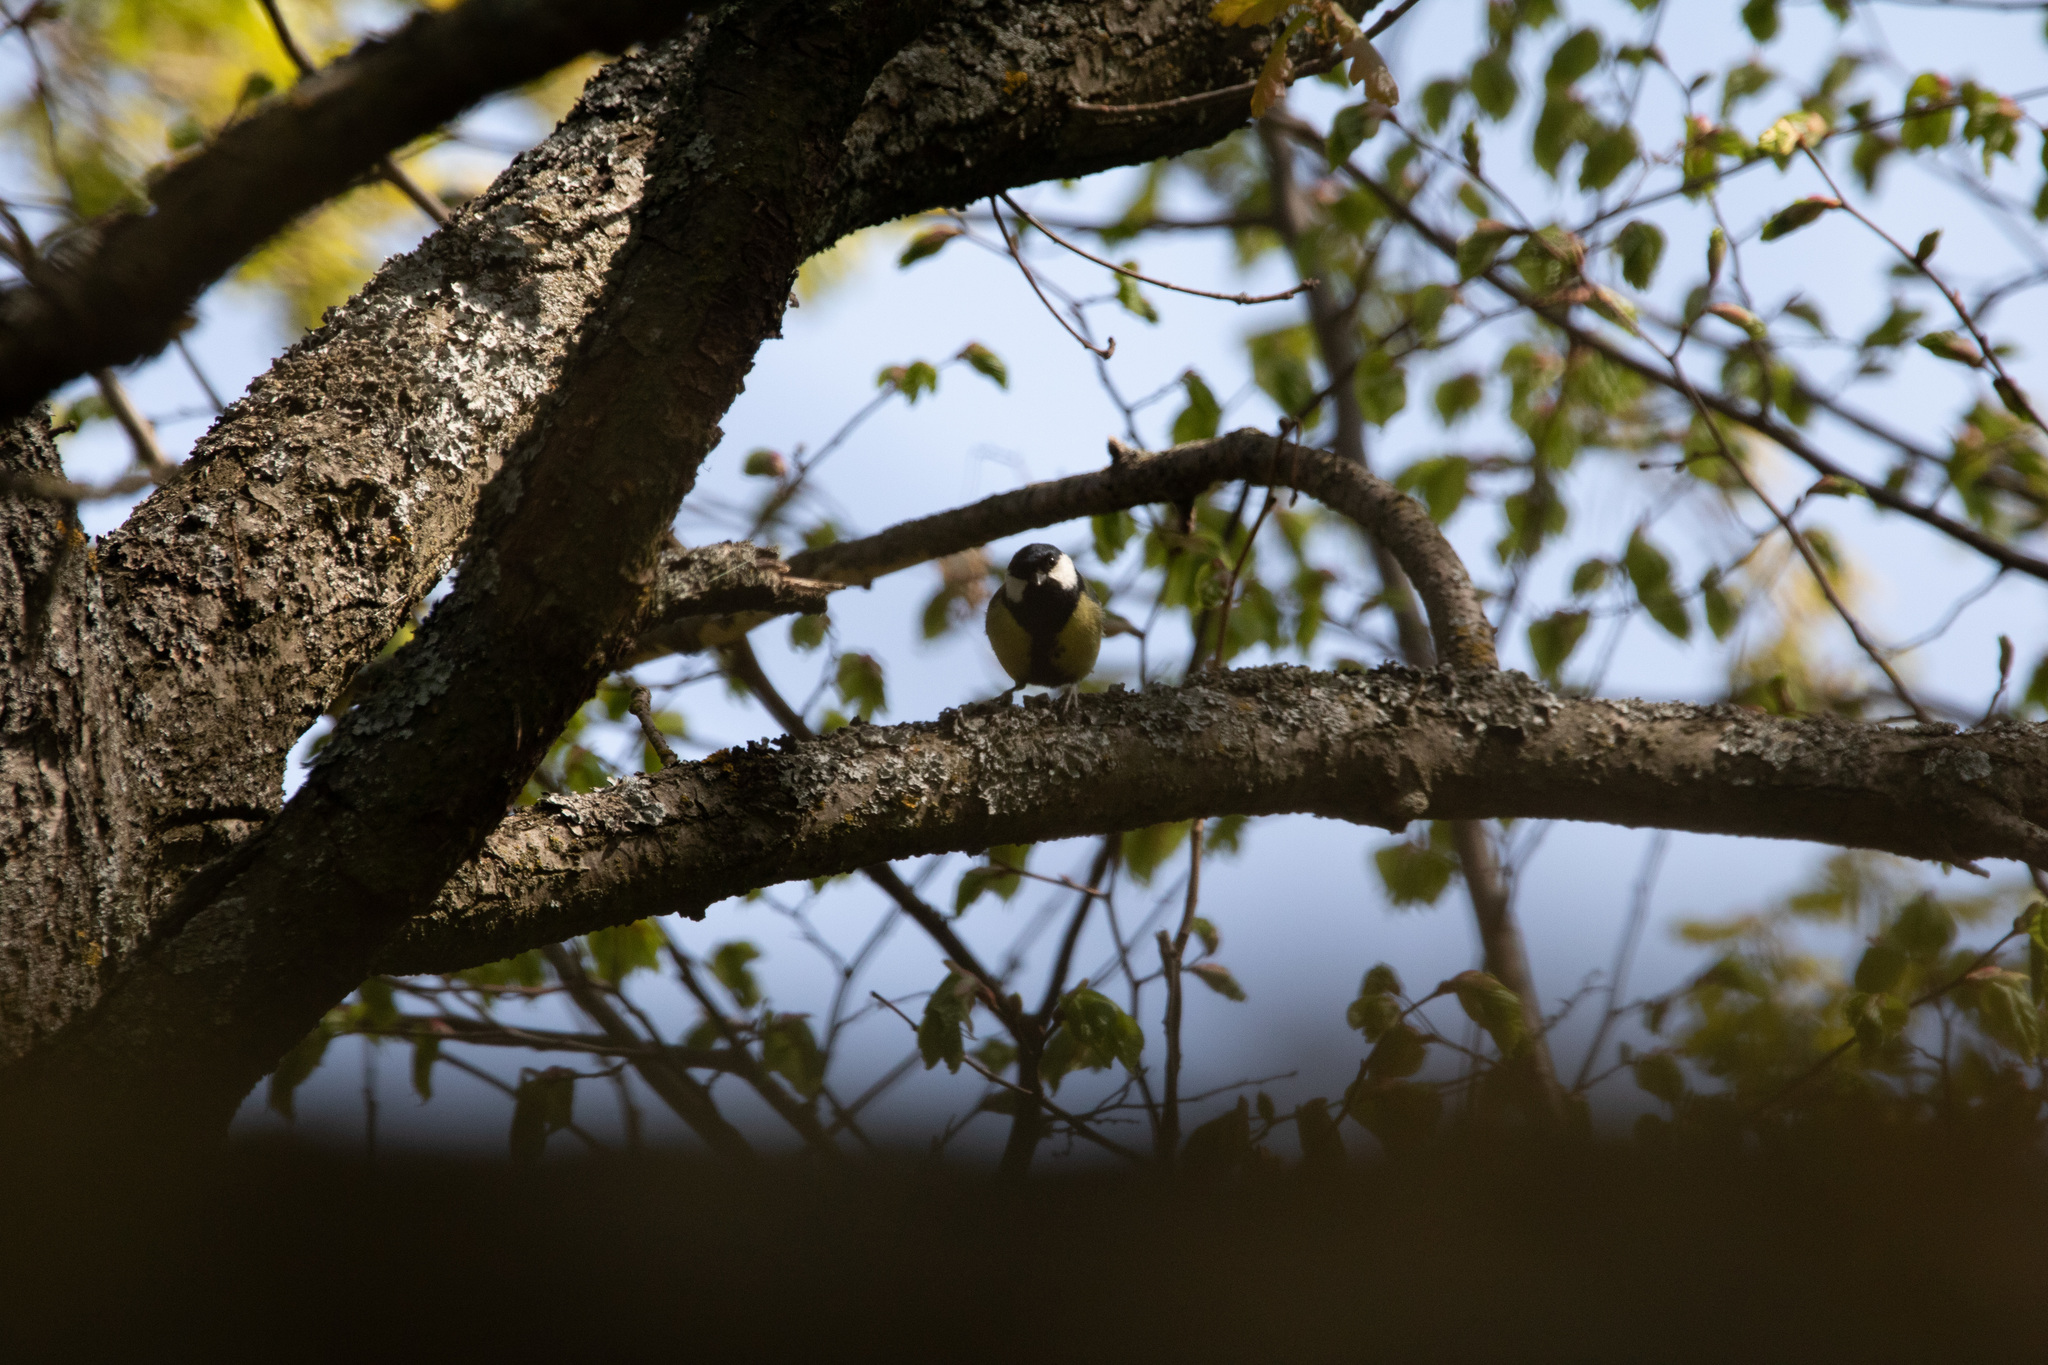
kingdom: Animalia
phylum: Chordata
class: Aves
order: Passeriformes
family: Paridae
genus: Parus
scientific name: Parus major
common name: Great tit
